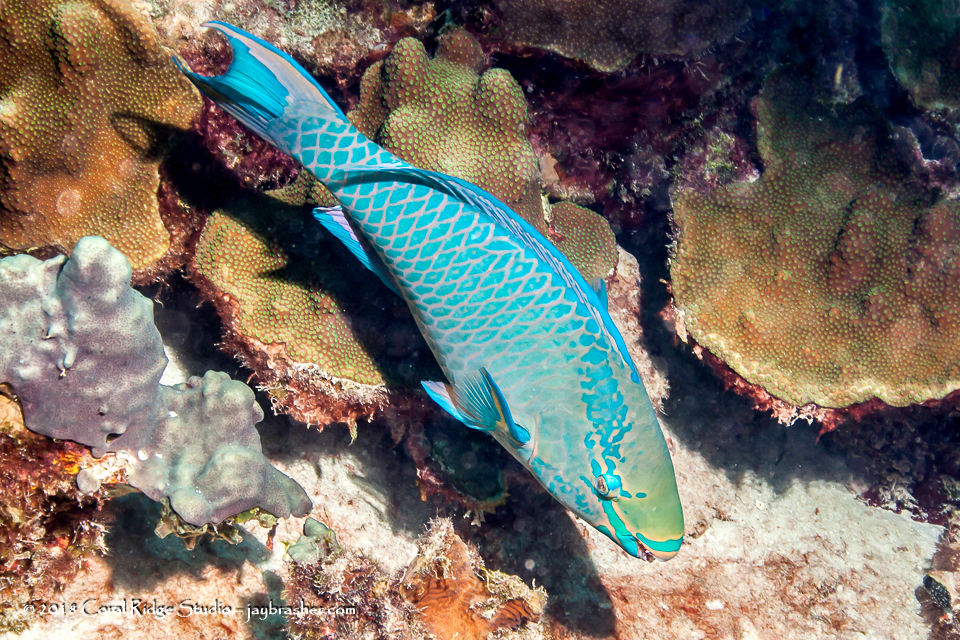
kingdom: Animalia
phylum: Chordata
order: Perciformes
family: Scaridae
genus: Scarus
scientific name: Scarus vetula
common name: Queen parrotfish
